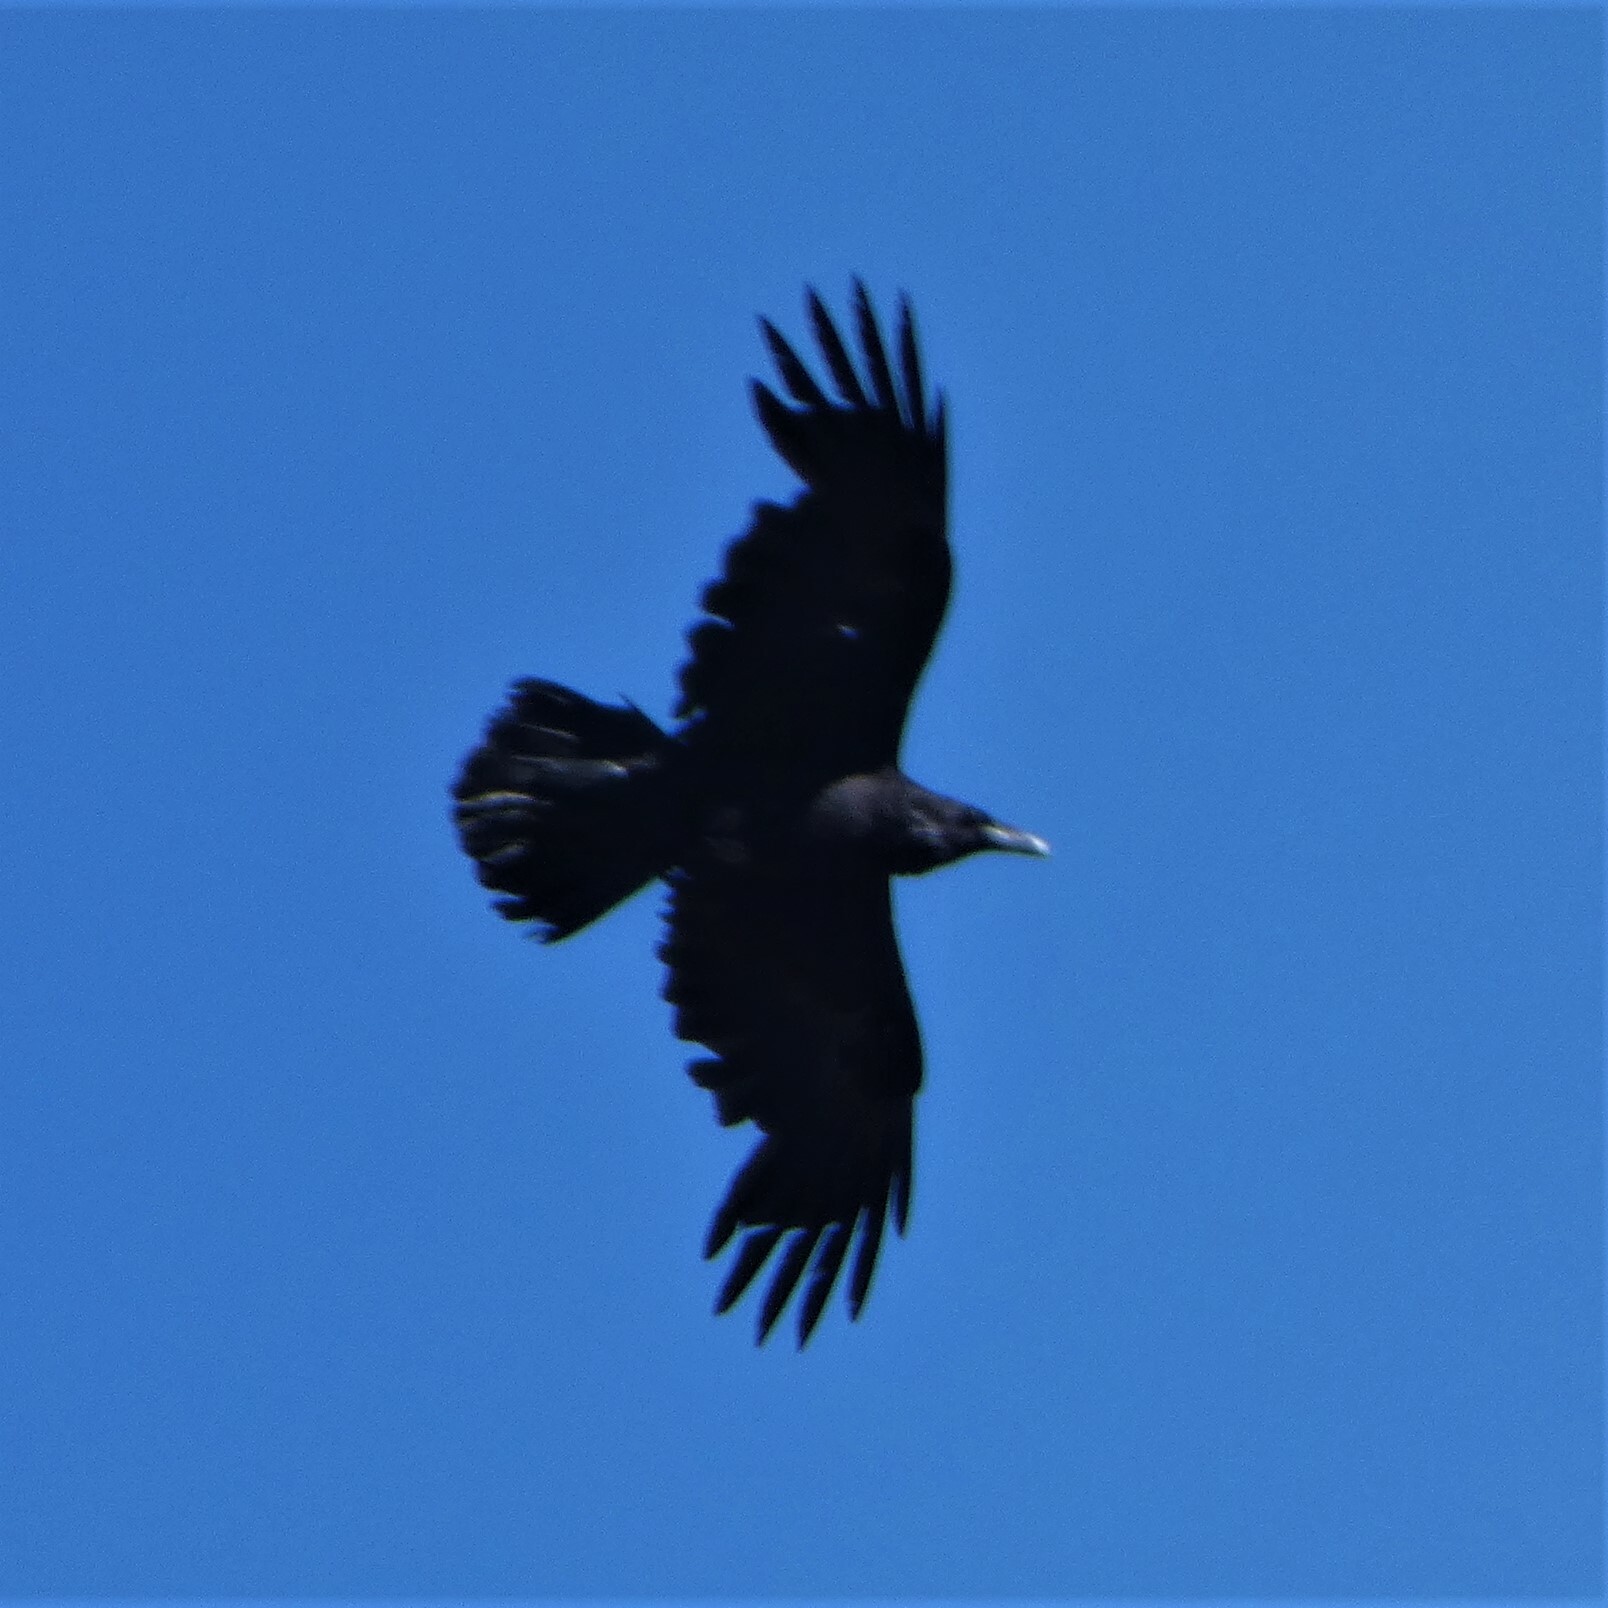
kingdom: Animalia
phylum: Chordata
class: Aves
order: Passeriformes
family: Corvidae
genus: Corvus
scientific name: Corvus corax
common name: Common raven
